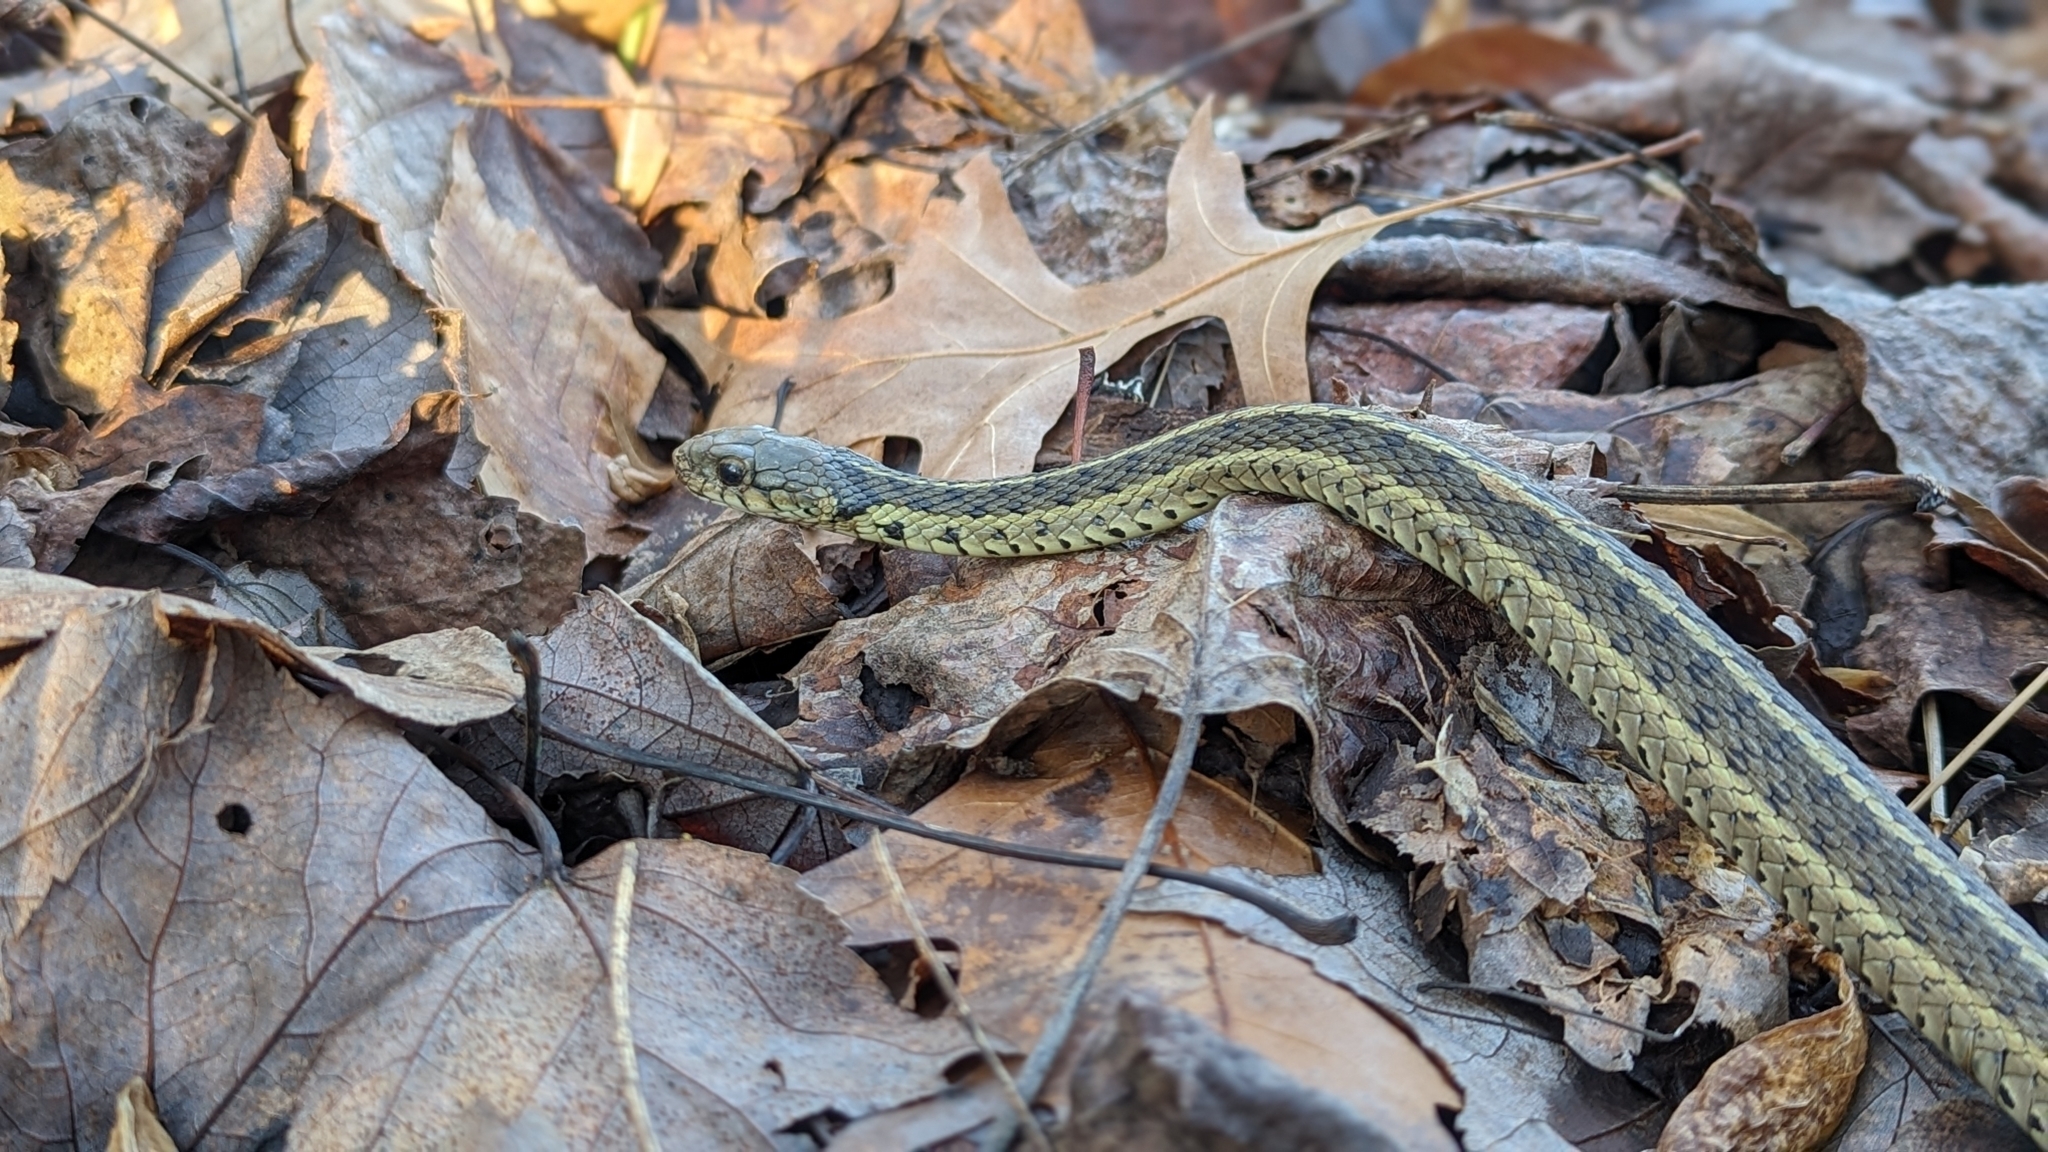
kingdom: Animalia
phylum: Chordata
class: Squamata
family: Colubridae
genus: Thamnophis
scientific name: Thamnophis sirtalis
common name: Common garter snake
